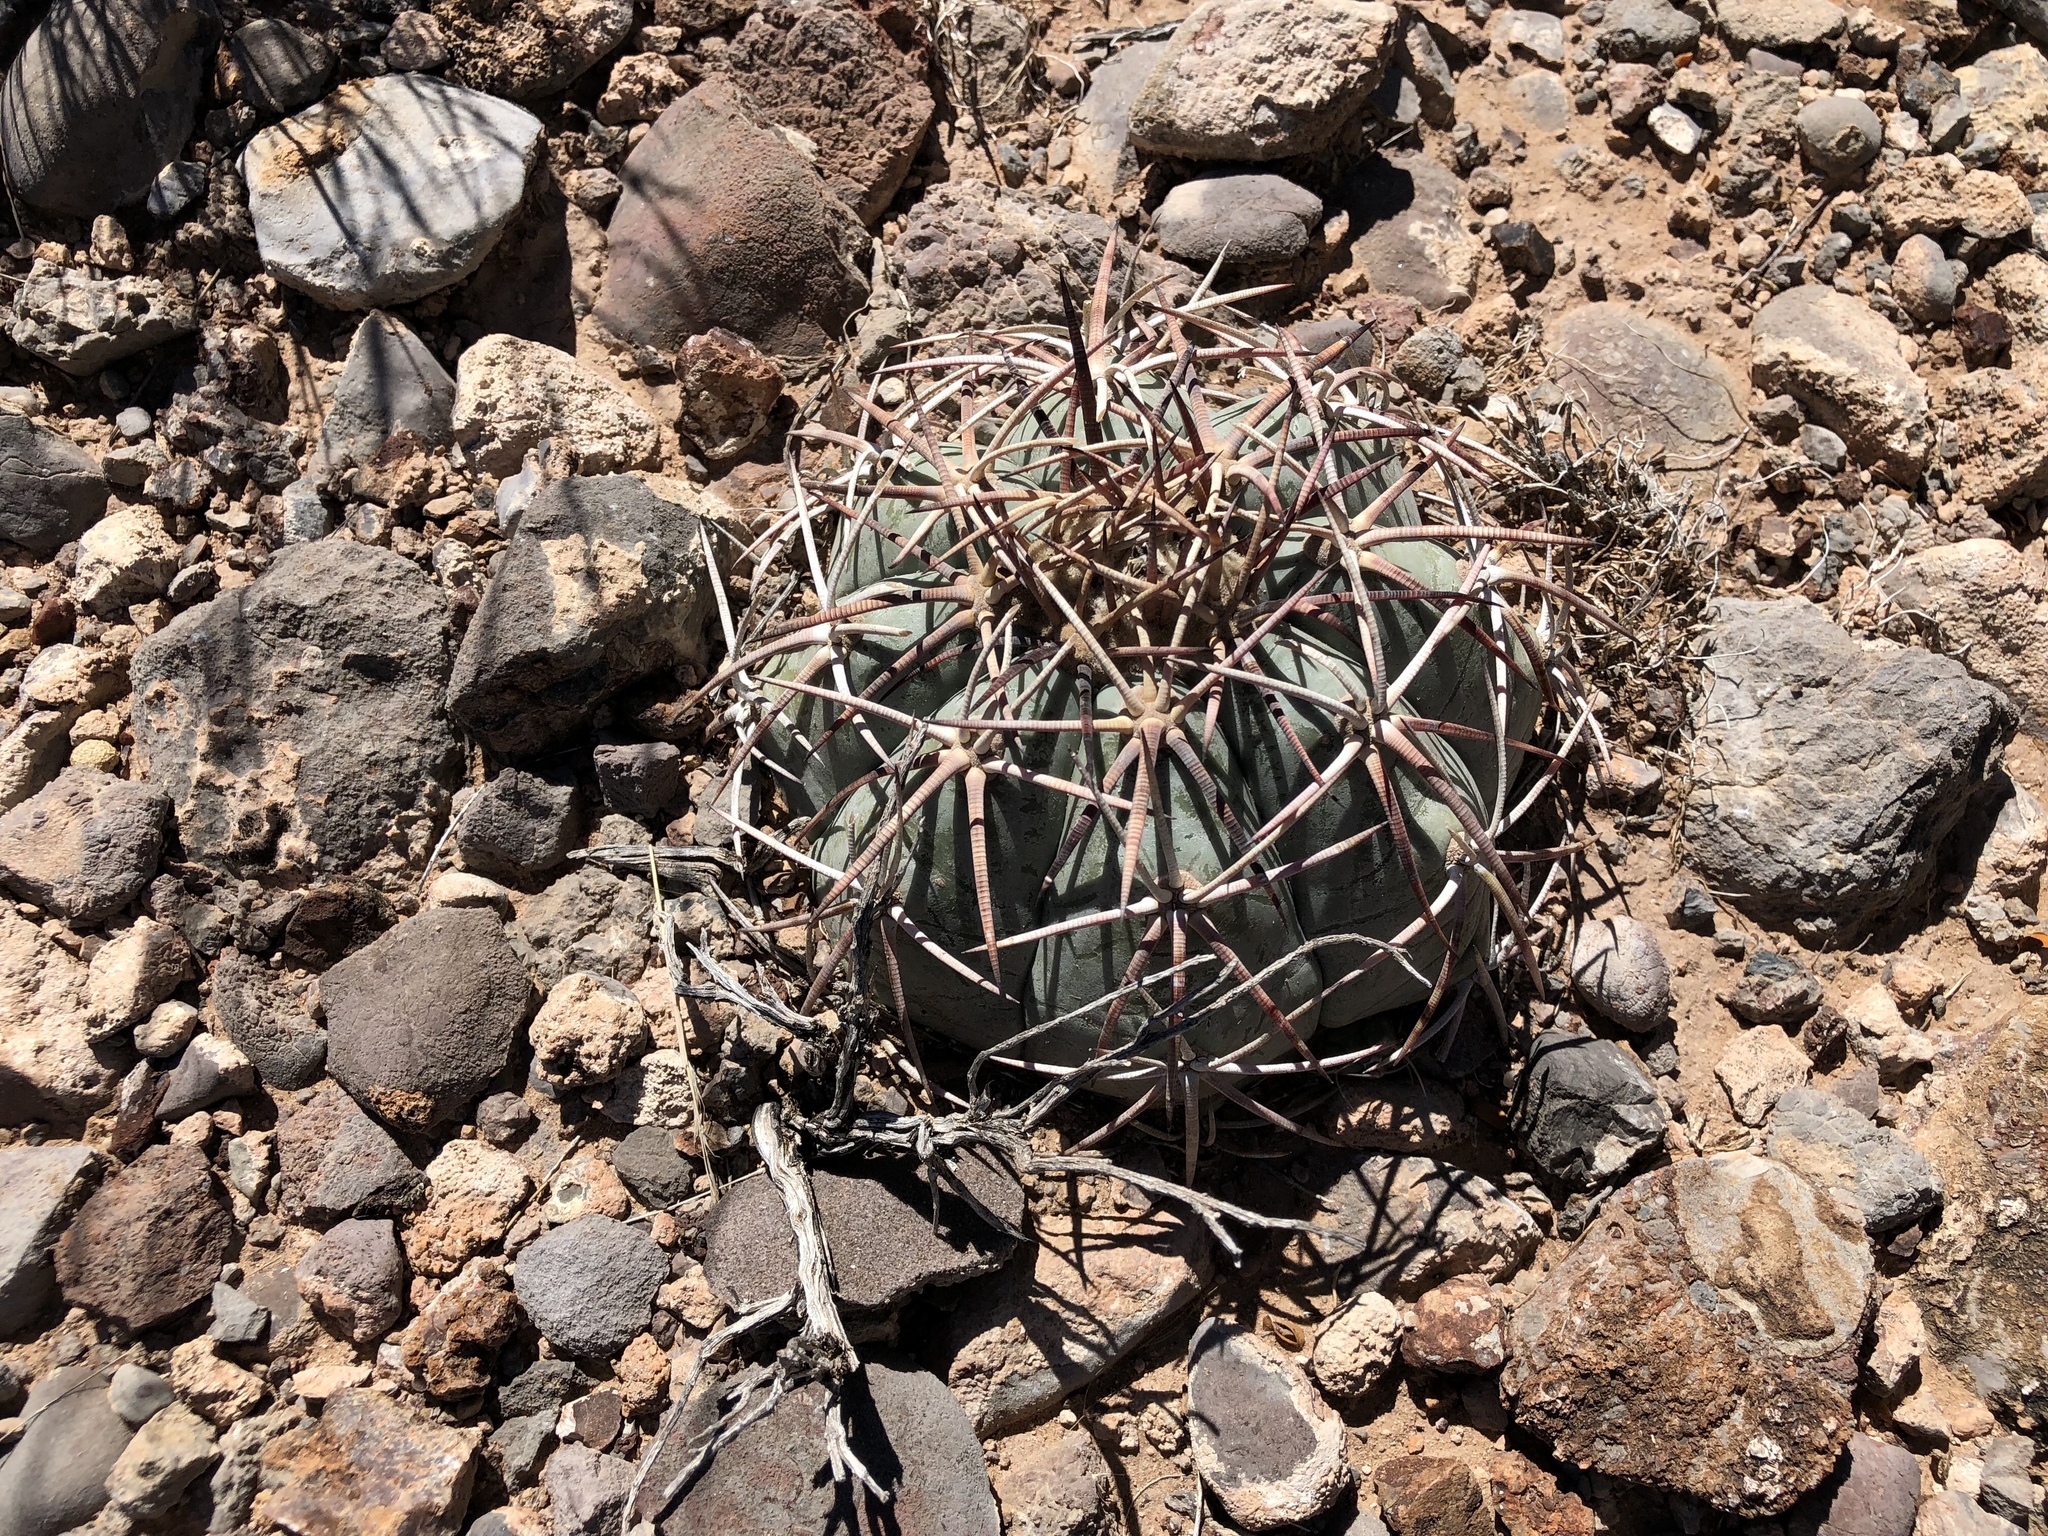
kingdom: Plantae
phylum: Tracheophyta
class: Magnoliopsida
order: Caryophyllales
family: Cactaceae
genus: Echinocactus
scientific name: Echinocactus horizonthalonius
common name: Devilshead
